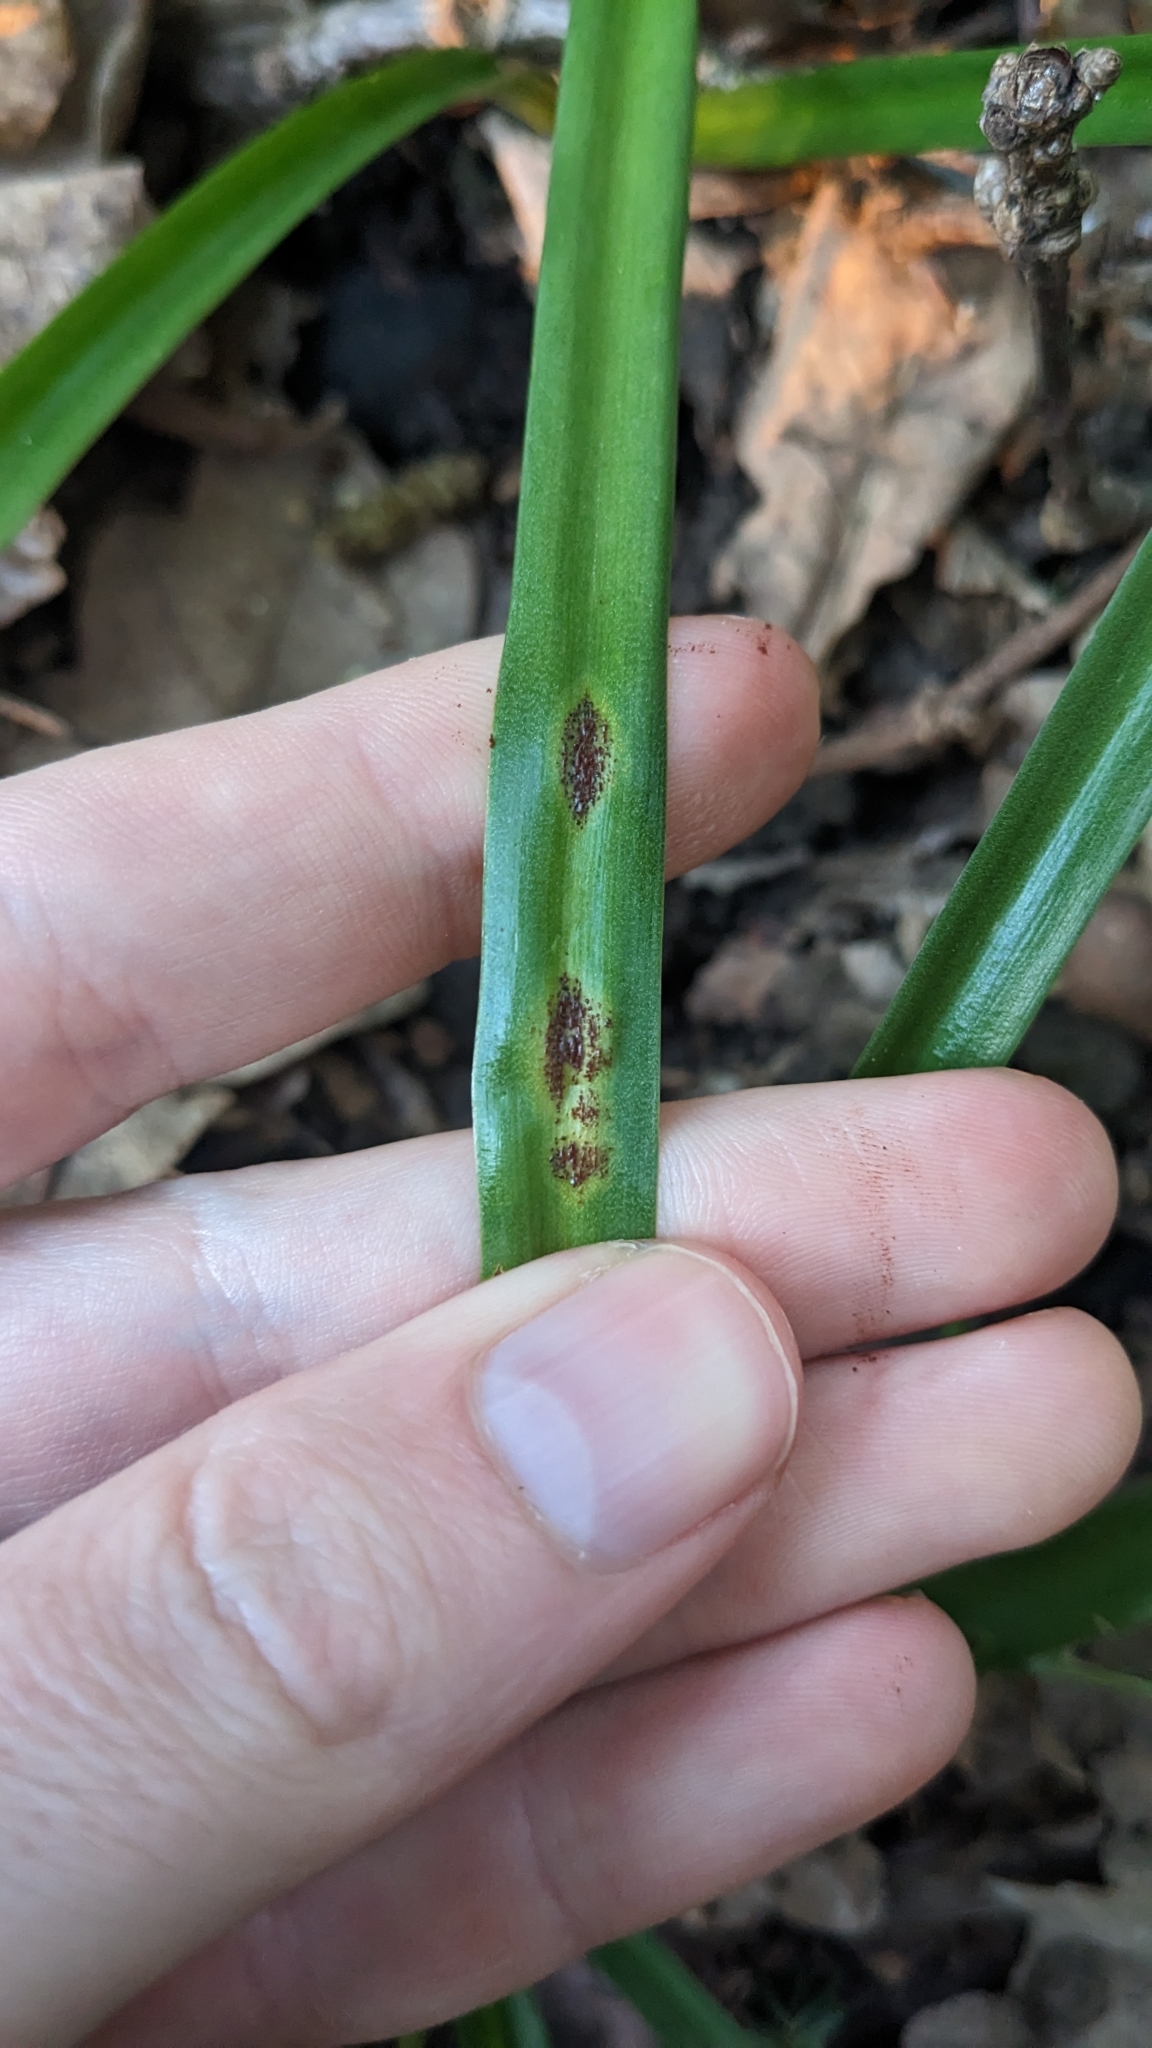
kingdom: Fungi
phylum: Basidiomycota
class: Pucciniomycetes
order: Pucciniales
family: Pucciniaceae
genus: Uromyces
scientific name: Uromyces hyacinthi
